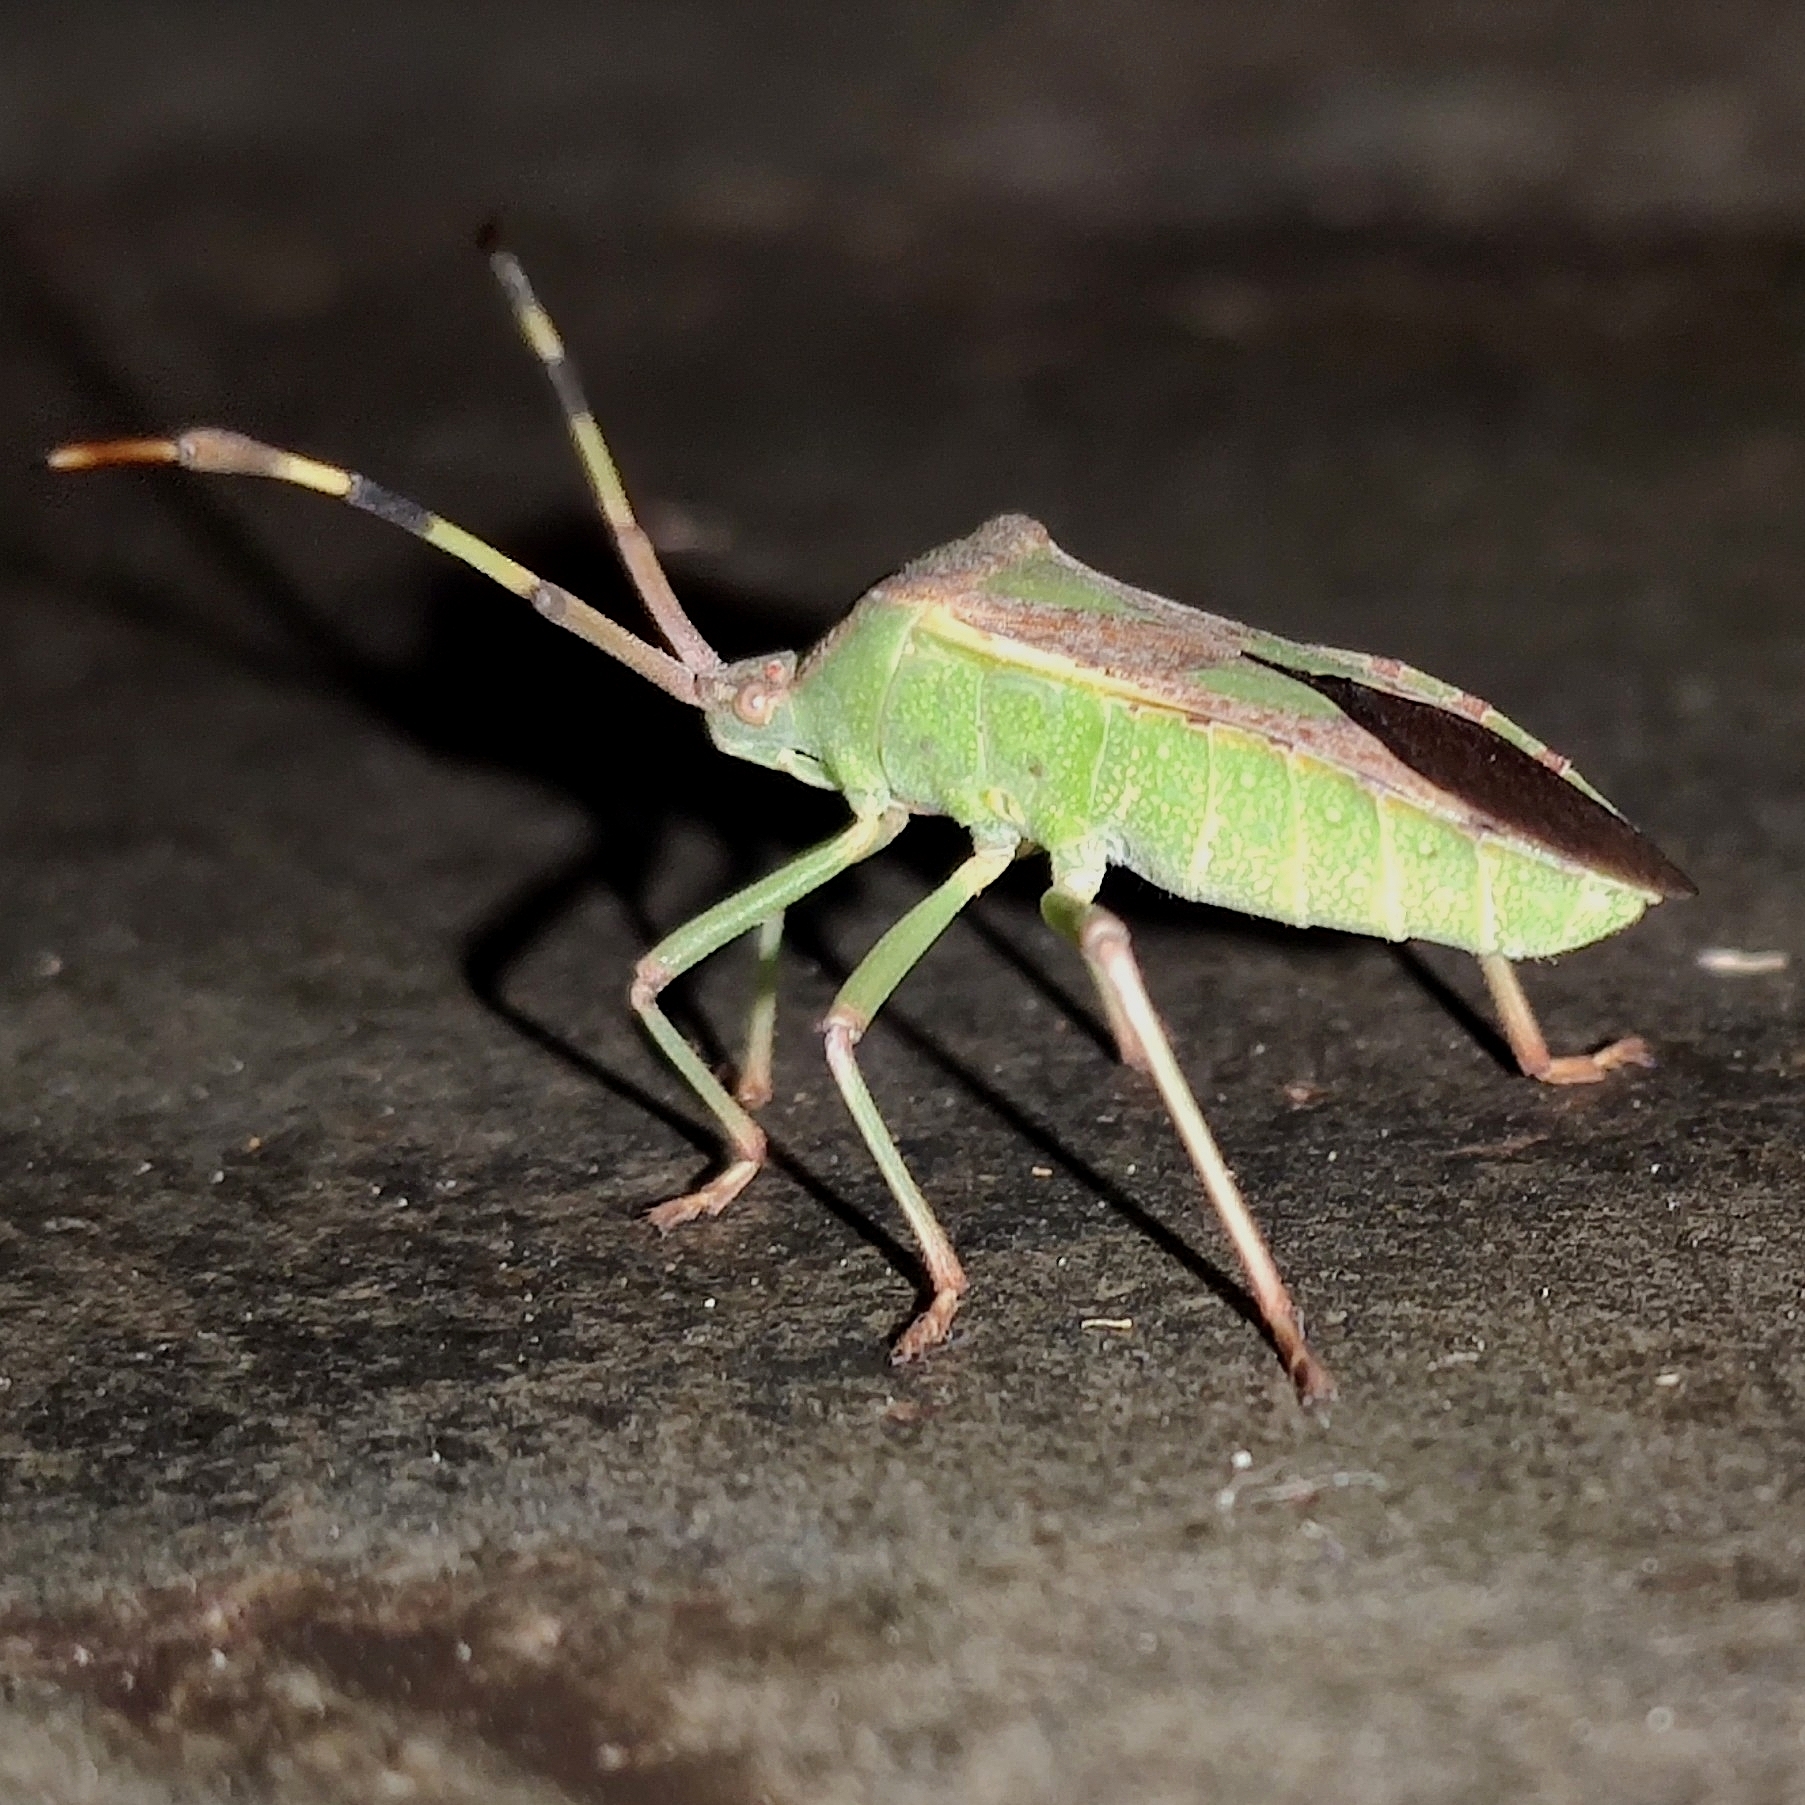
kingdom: Animalia
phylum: Arthropoda
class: Insecta
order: Hemiptera
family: Coreidae
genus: Prismatocerus
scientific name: Prismatocerus prominulus
